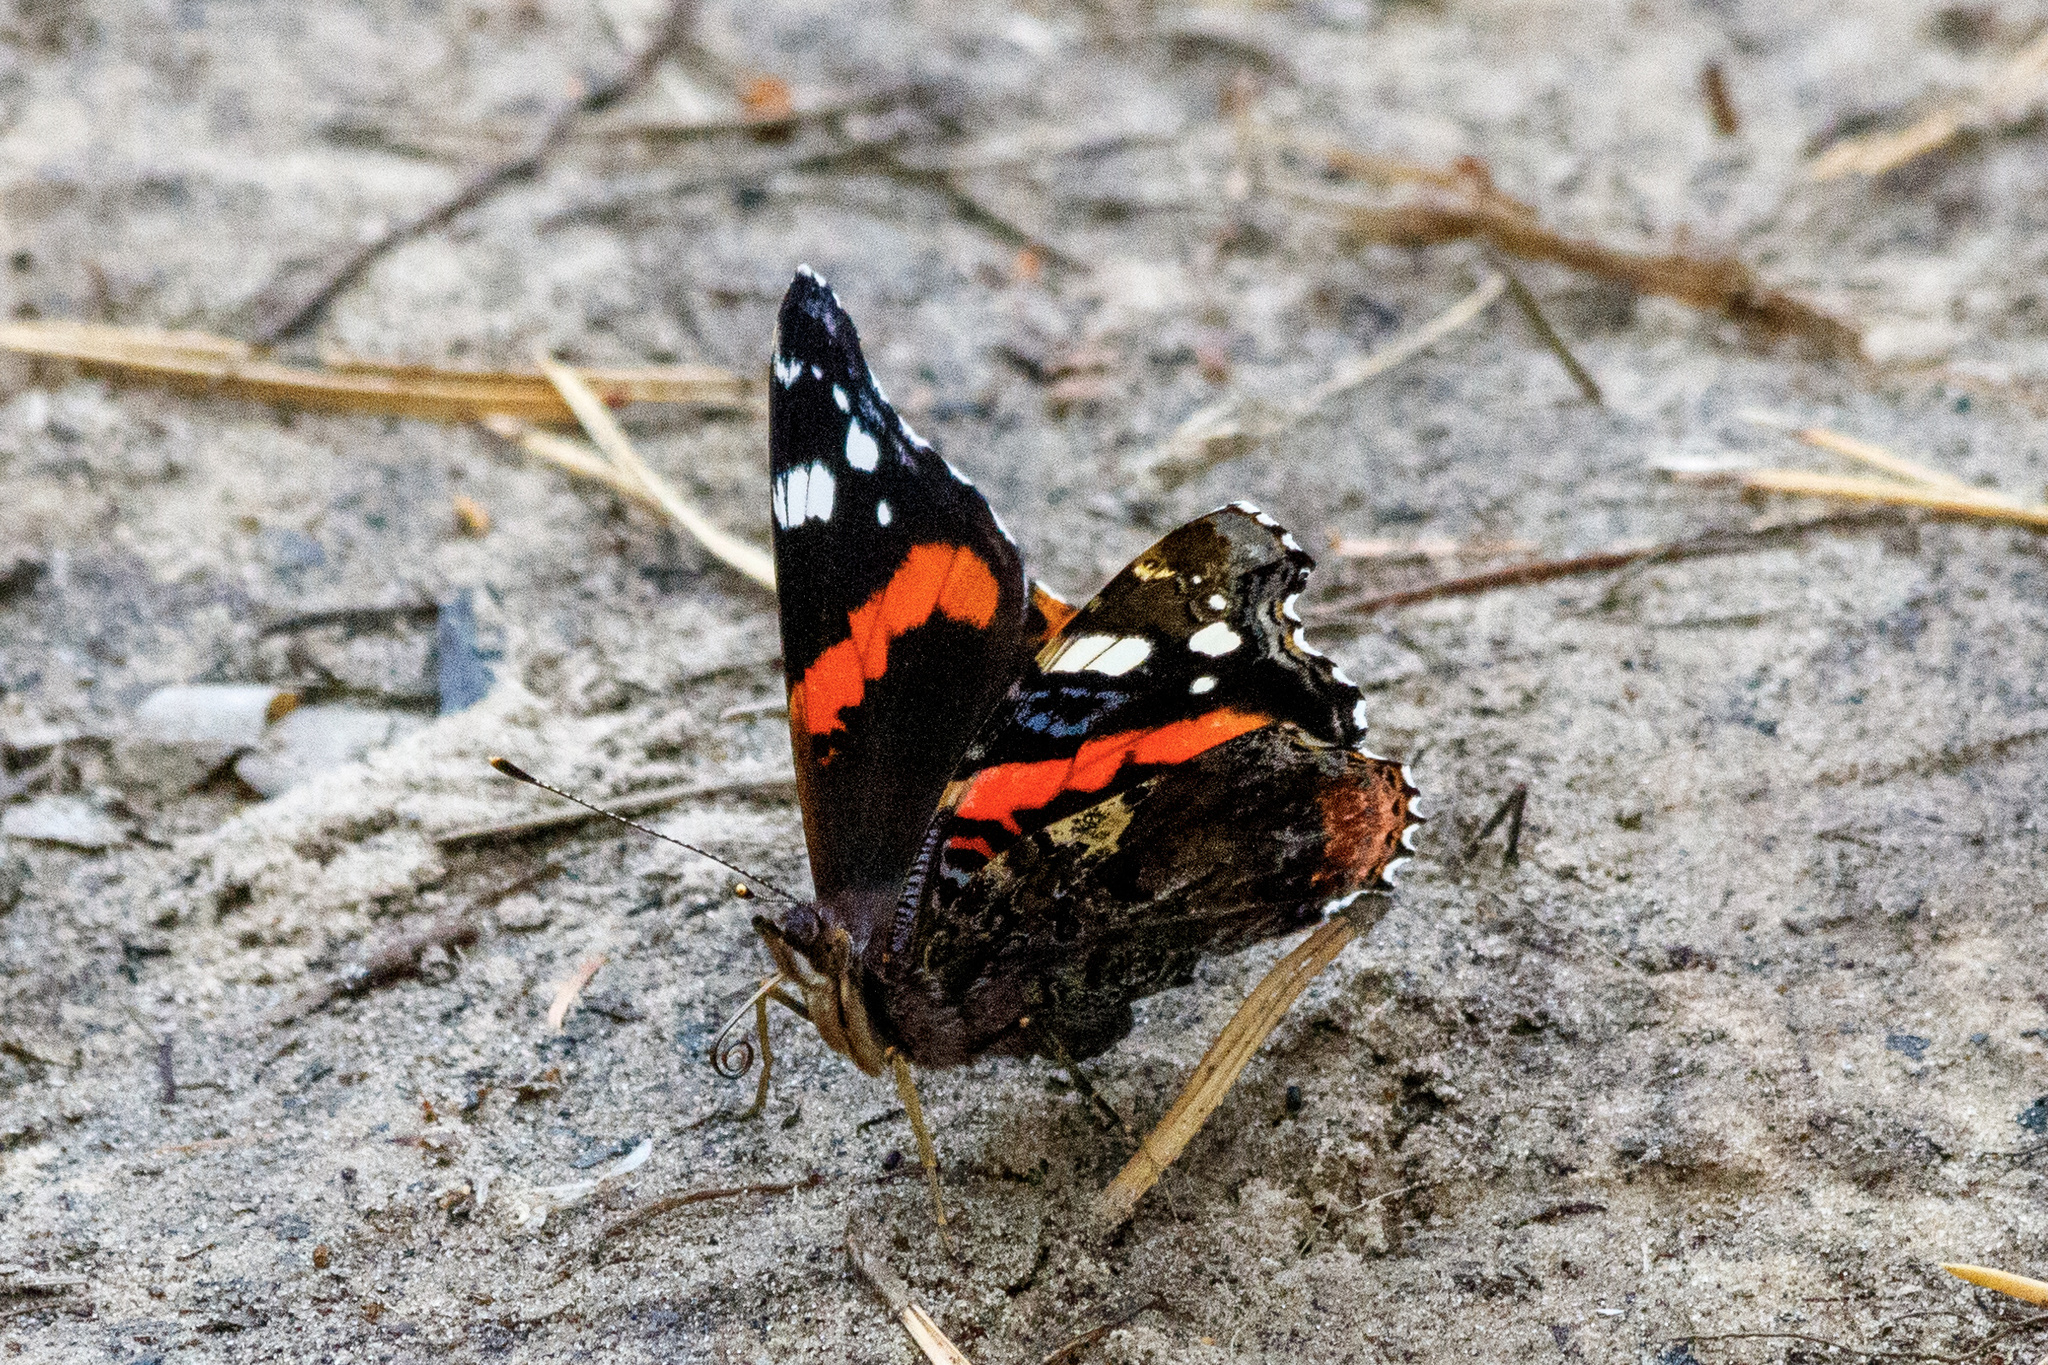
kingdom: Animalia
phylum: Arthropoda
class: Insecta
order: Lepidoptera
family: Nymphalidae
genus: Vanessa
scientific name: Vanessa atalanta
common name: Red admiral
